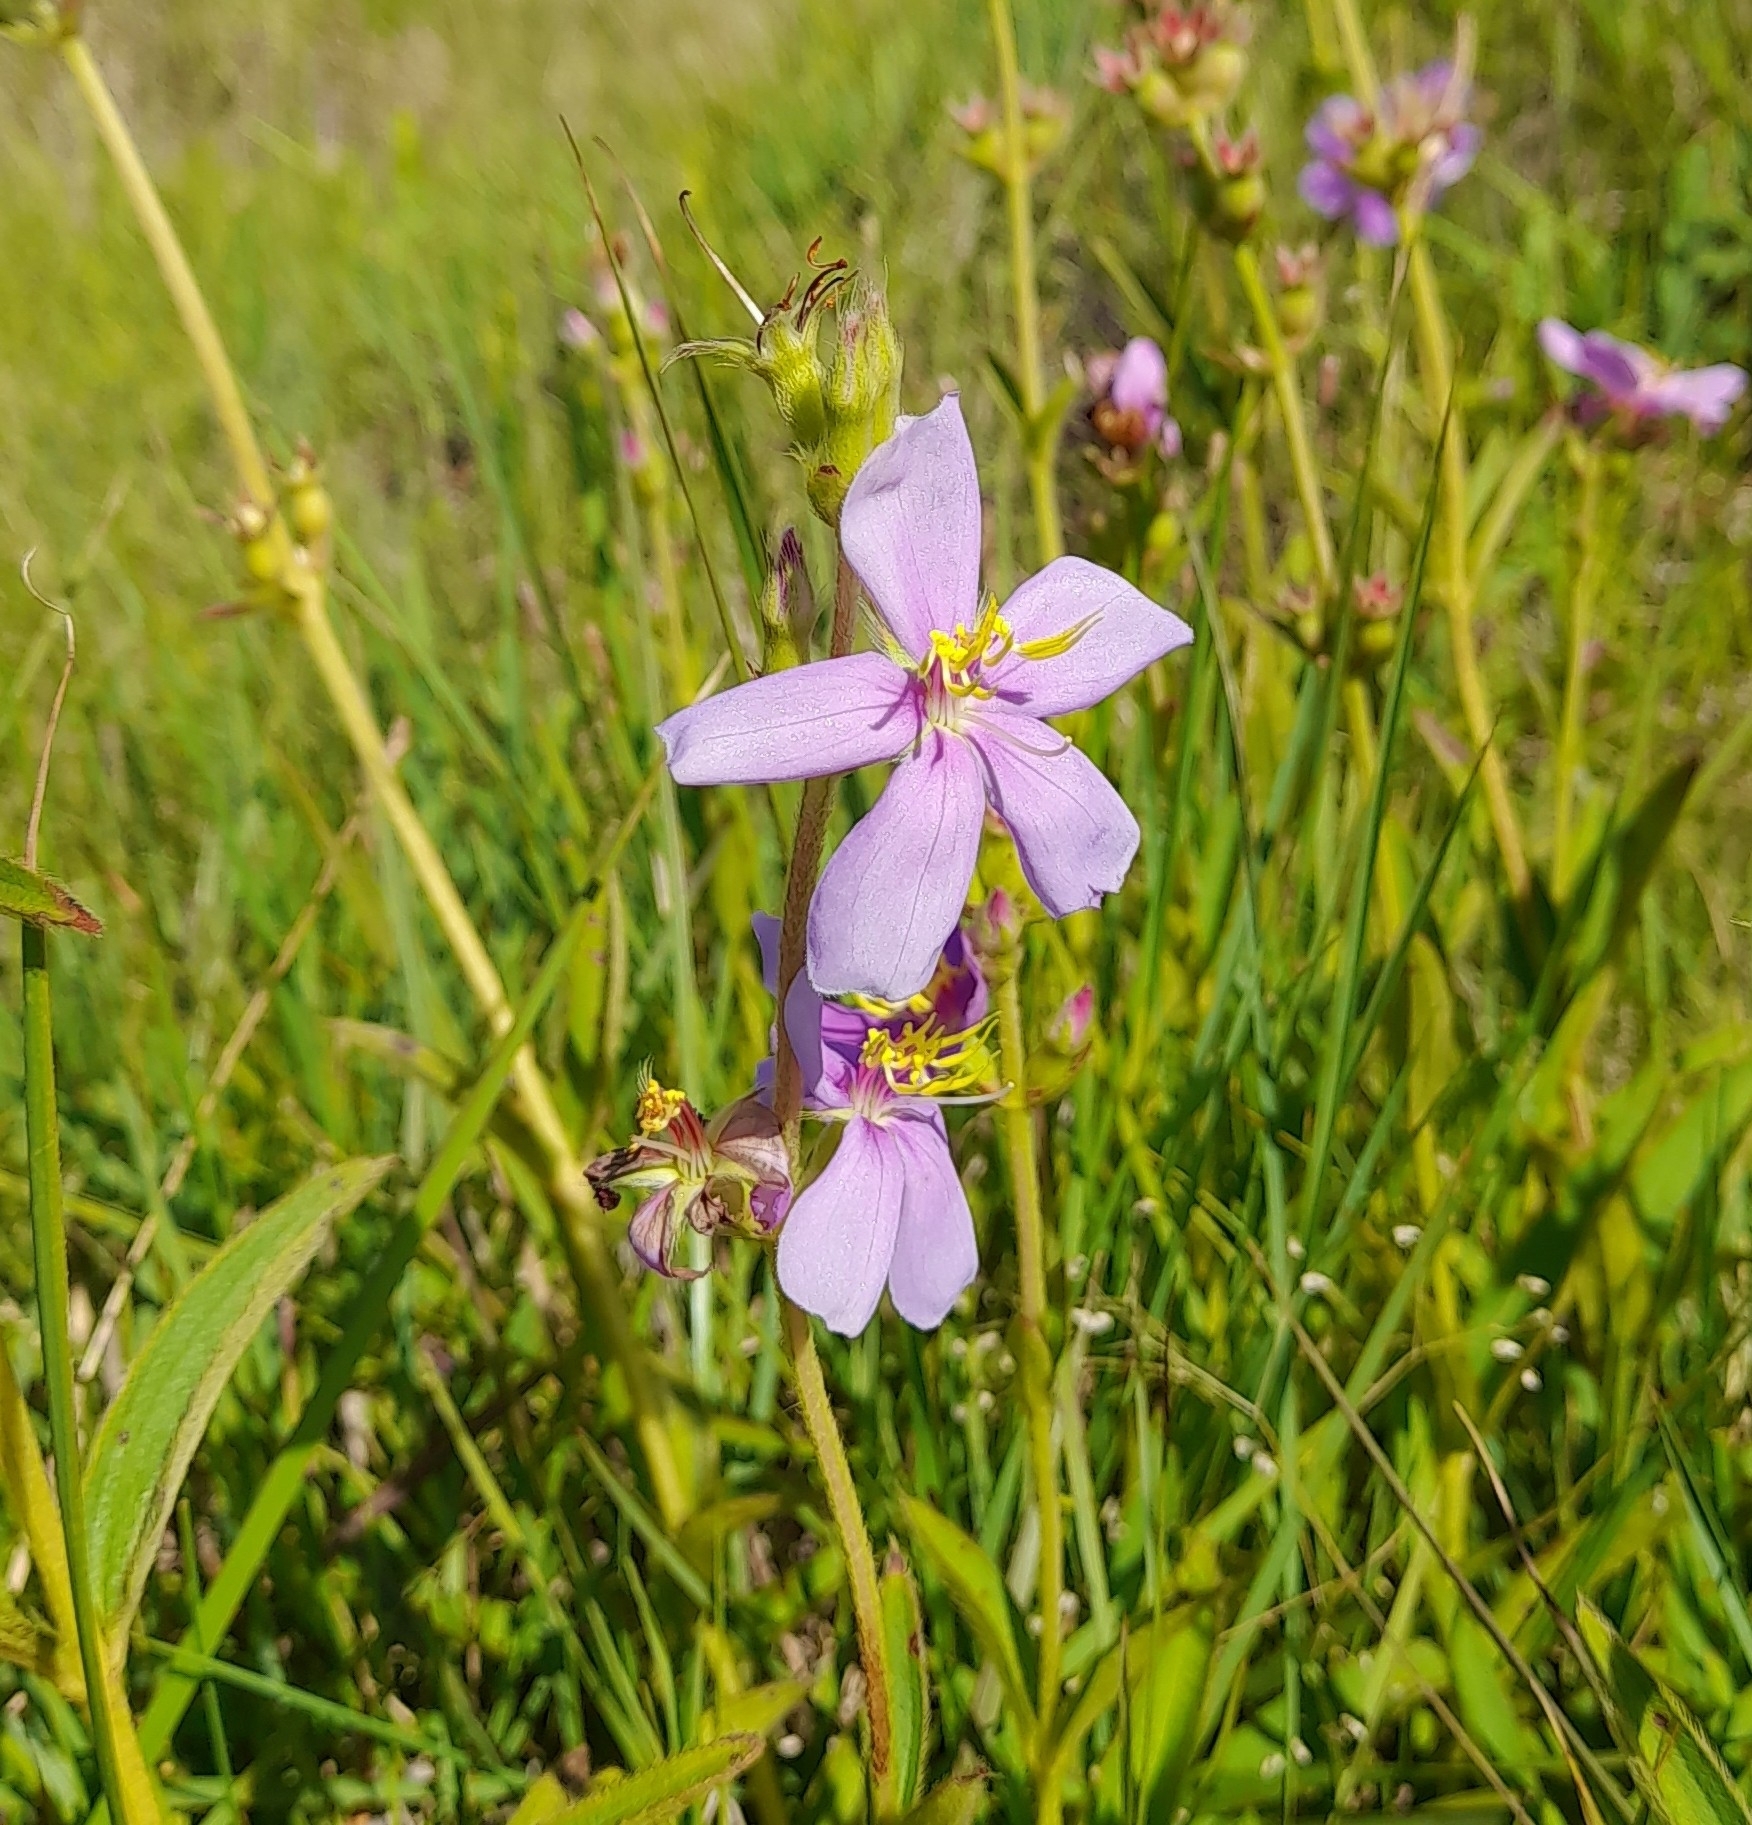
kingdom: Plantae
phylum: Tracheophyta
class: Magnoliopsida
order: Myrtales
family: Melastomataceae
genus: Chaetogastra
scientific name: Chaetogastra gracilis
